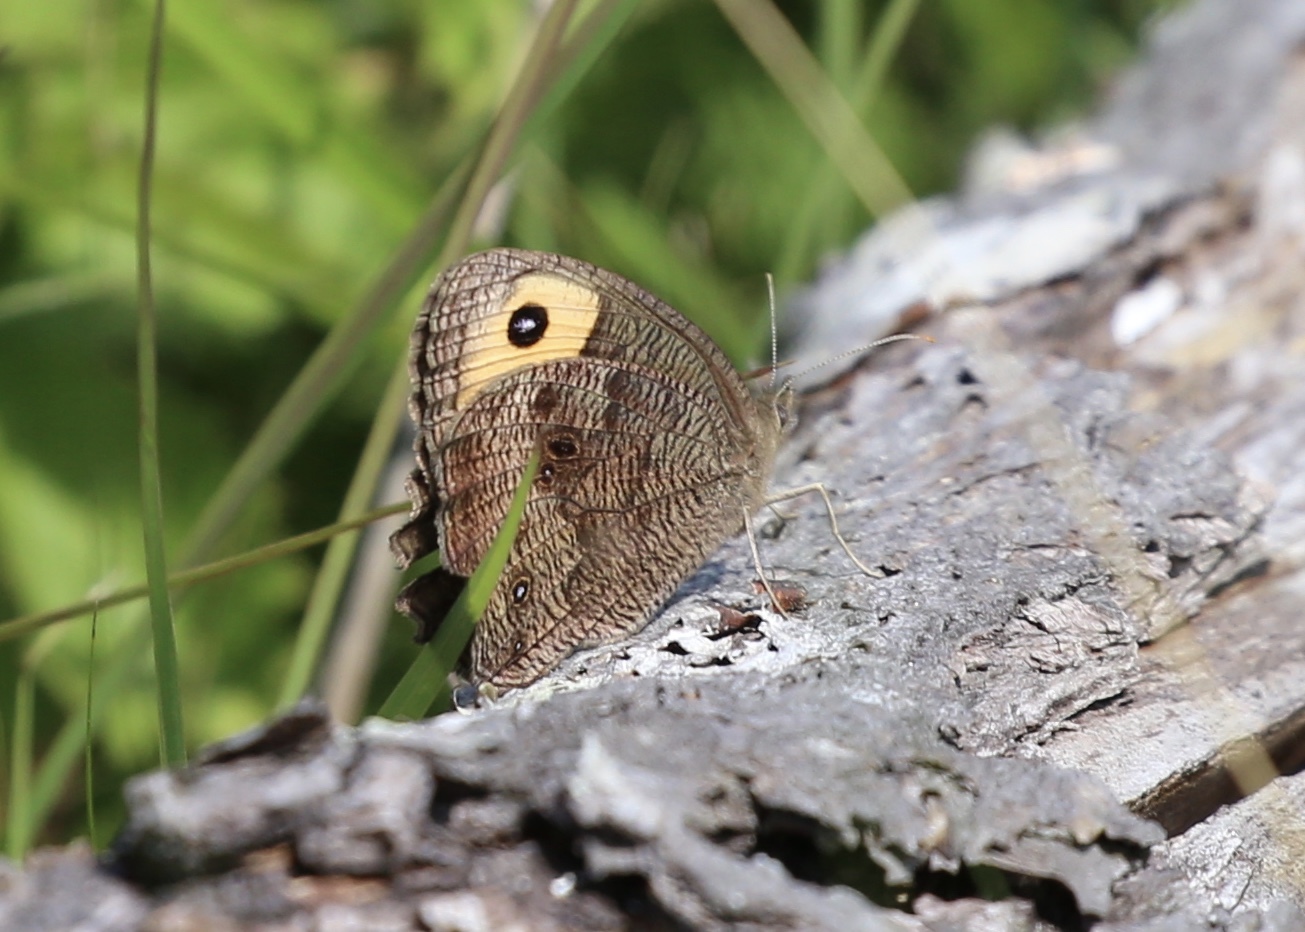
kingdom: Animalia
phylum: Arthropoda
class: Insecta
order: Lepidoptera
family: Nymphalidae
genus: Cercyonis
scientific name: Cercyonis pegala
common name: Common wood-nymph
